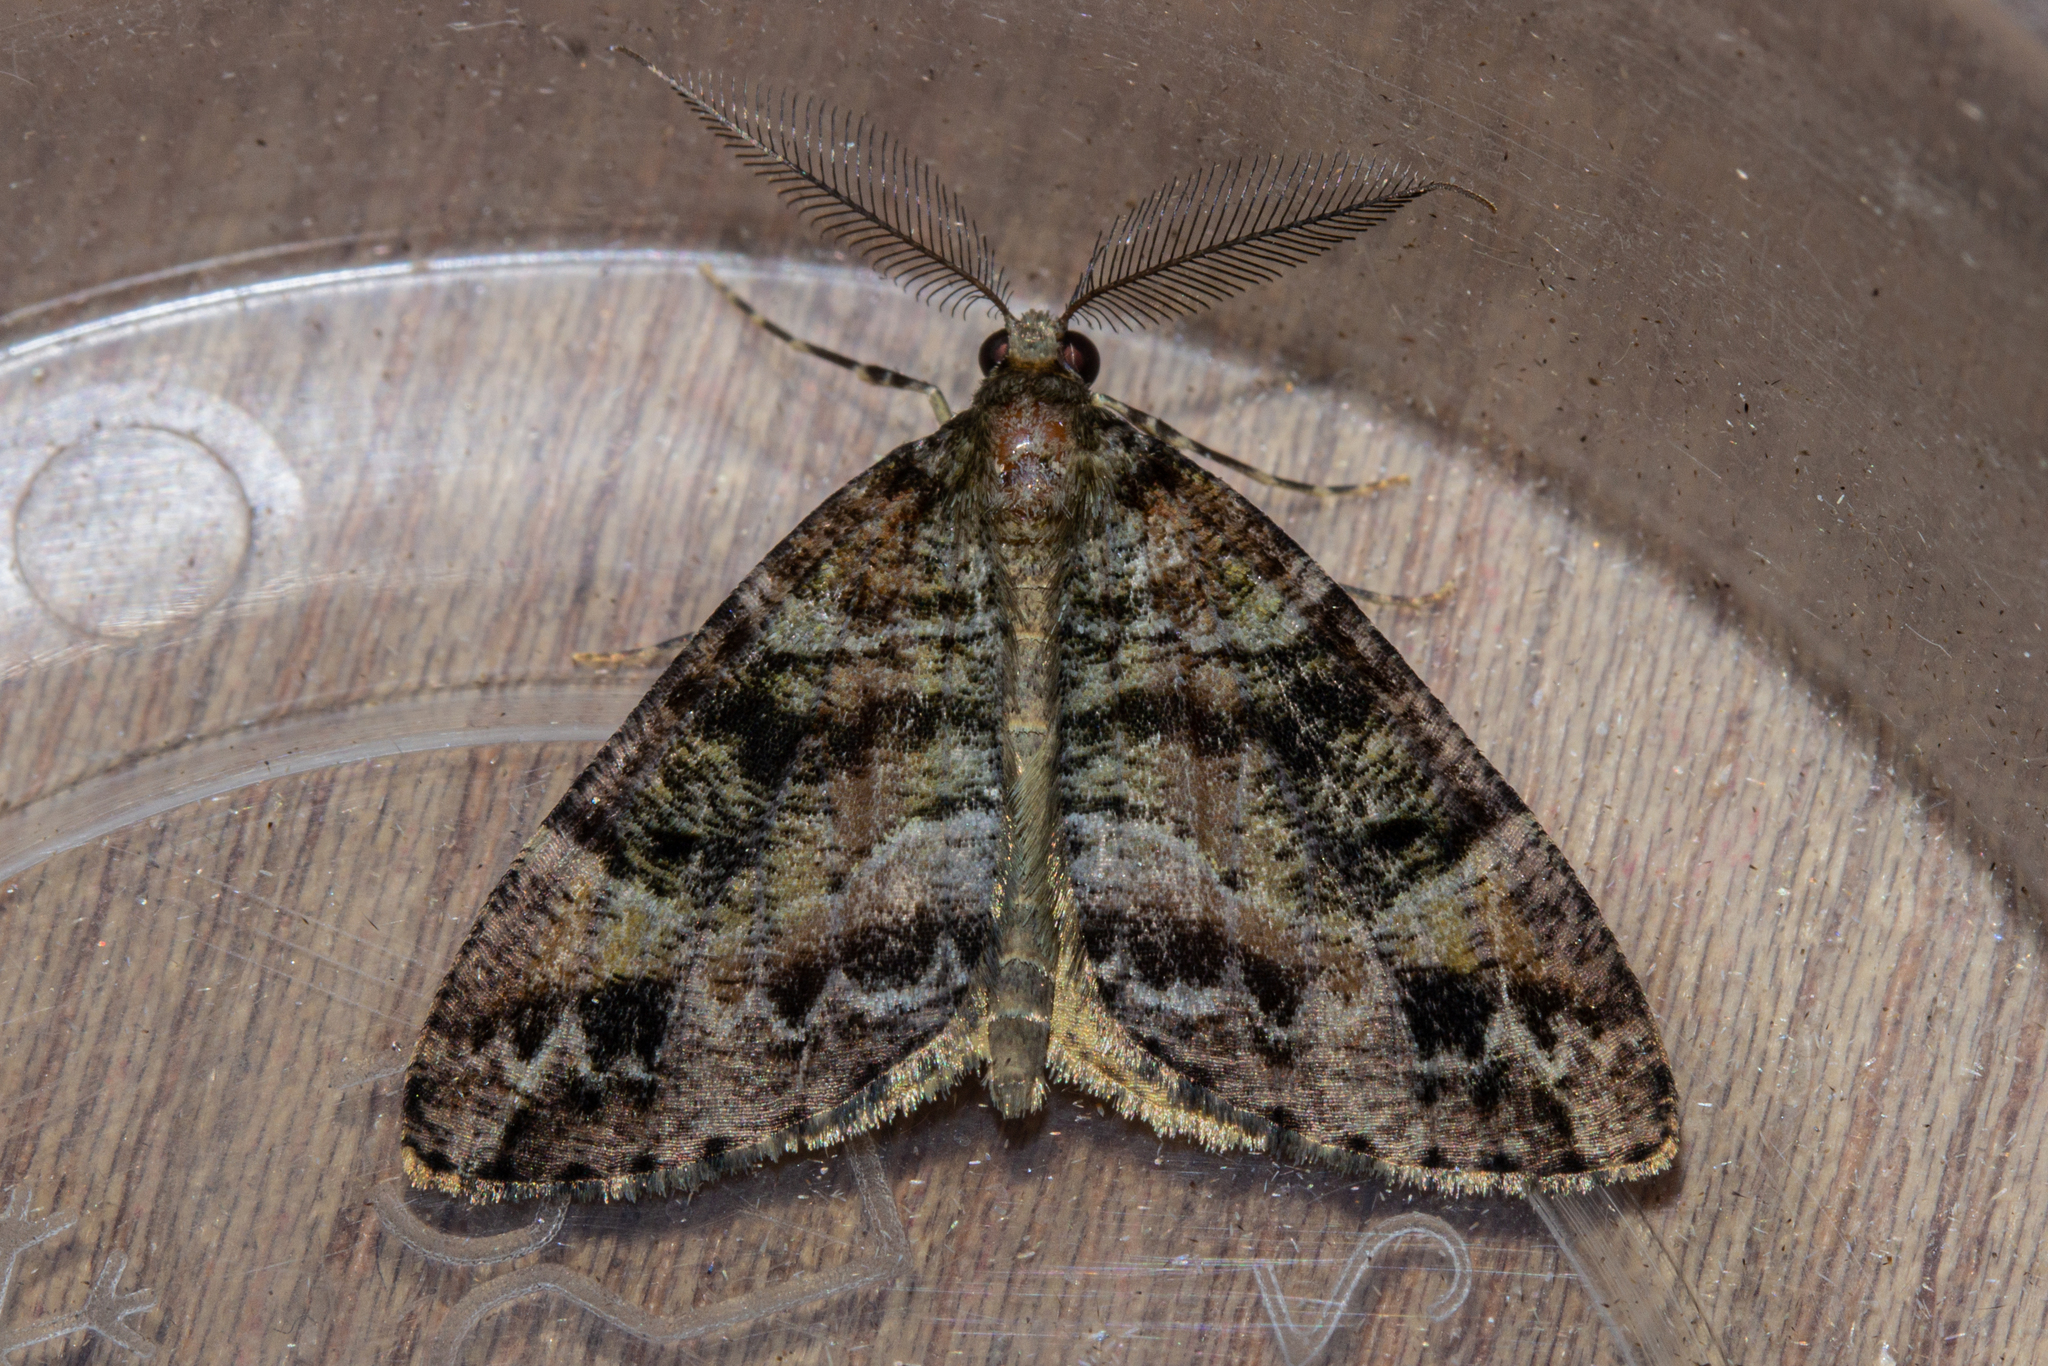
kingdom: Animalia
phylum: Arthropoda
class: Insecta
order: Lepidoptera
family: Geometridae
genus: Pseudocoremia
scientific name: Pseudocoremia productata
